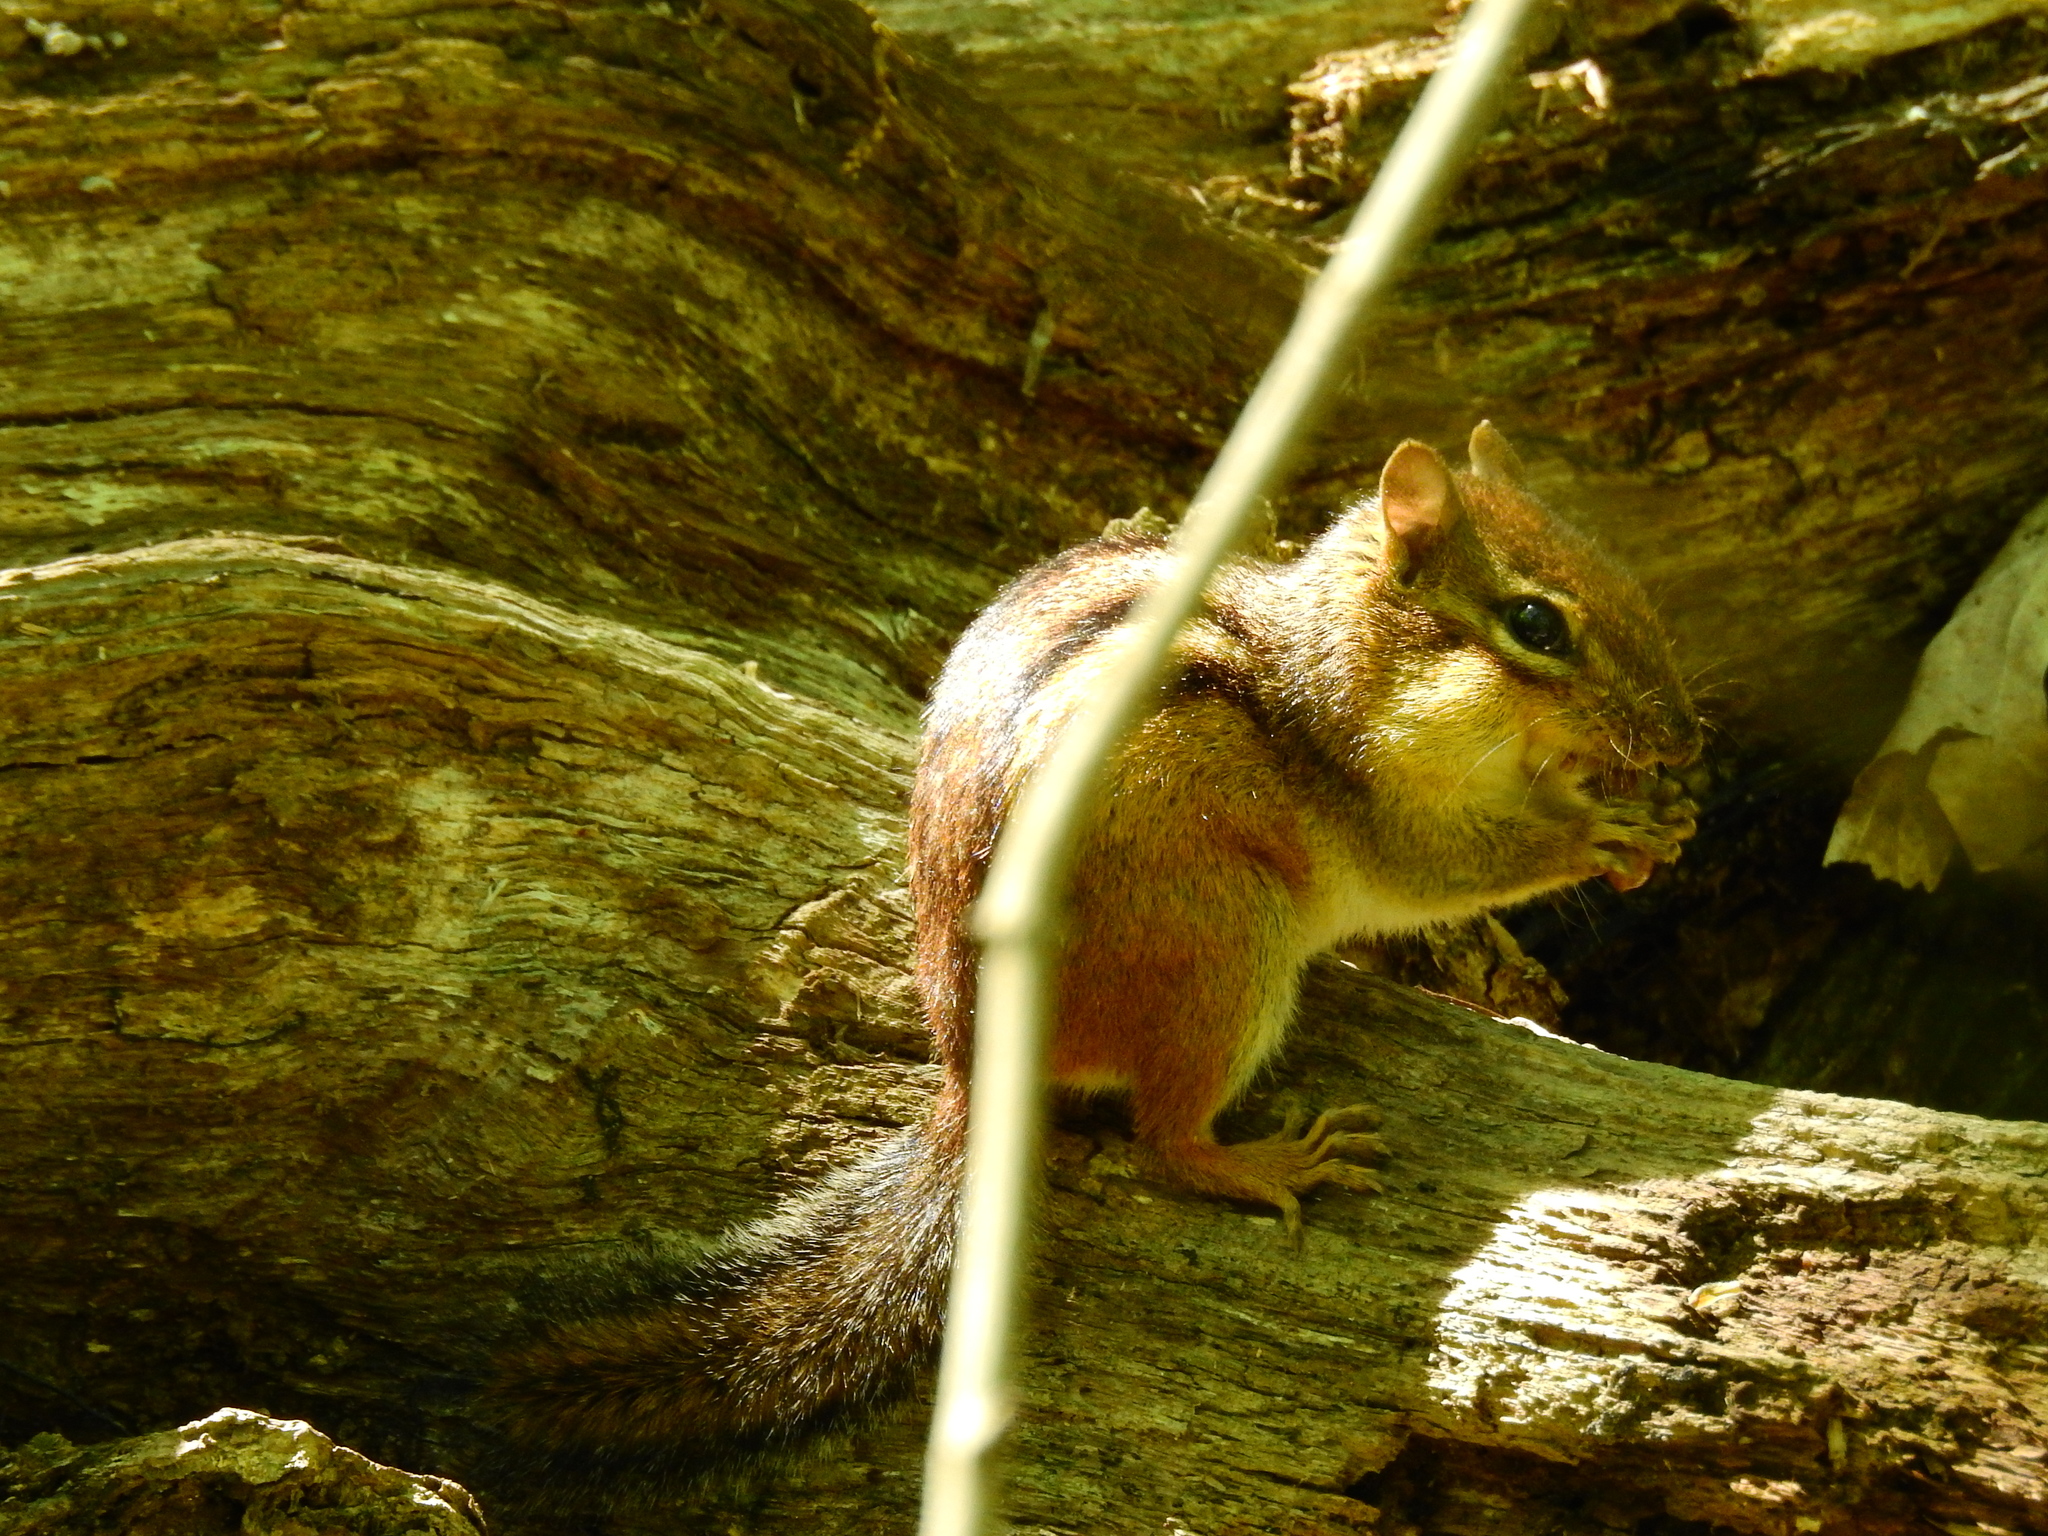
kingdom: Animalia
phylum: Chordata
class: Mammalia
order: Rodentia
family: Sciuridae
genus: Tamias
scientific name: Tamias striatus
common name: Eastern chipmunk
